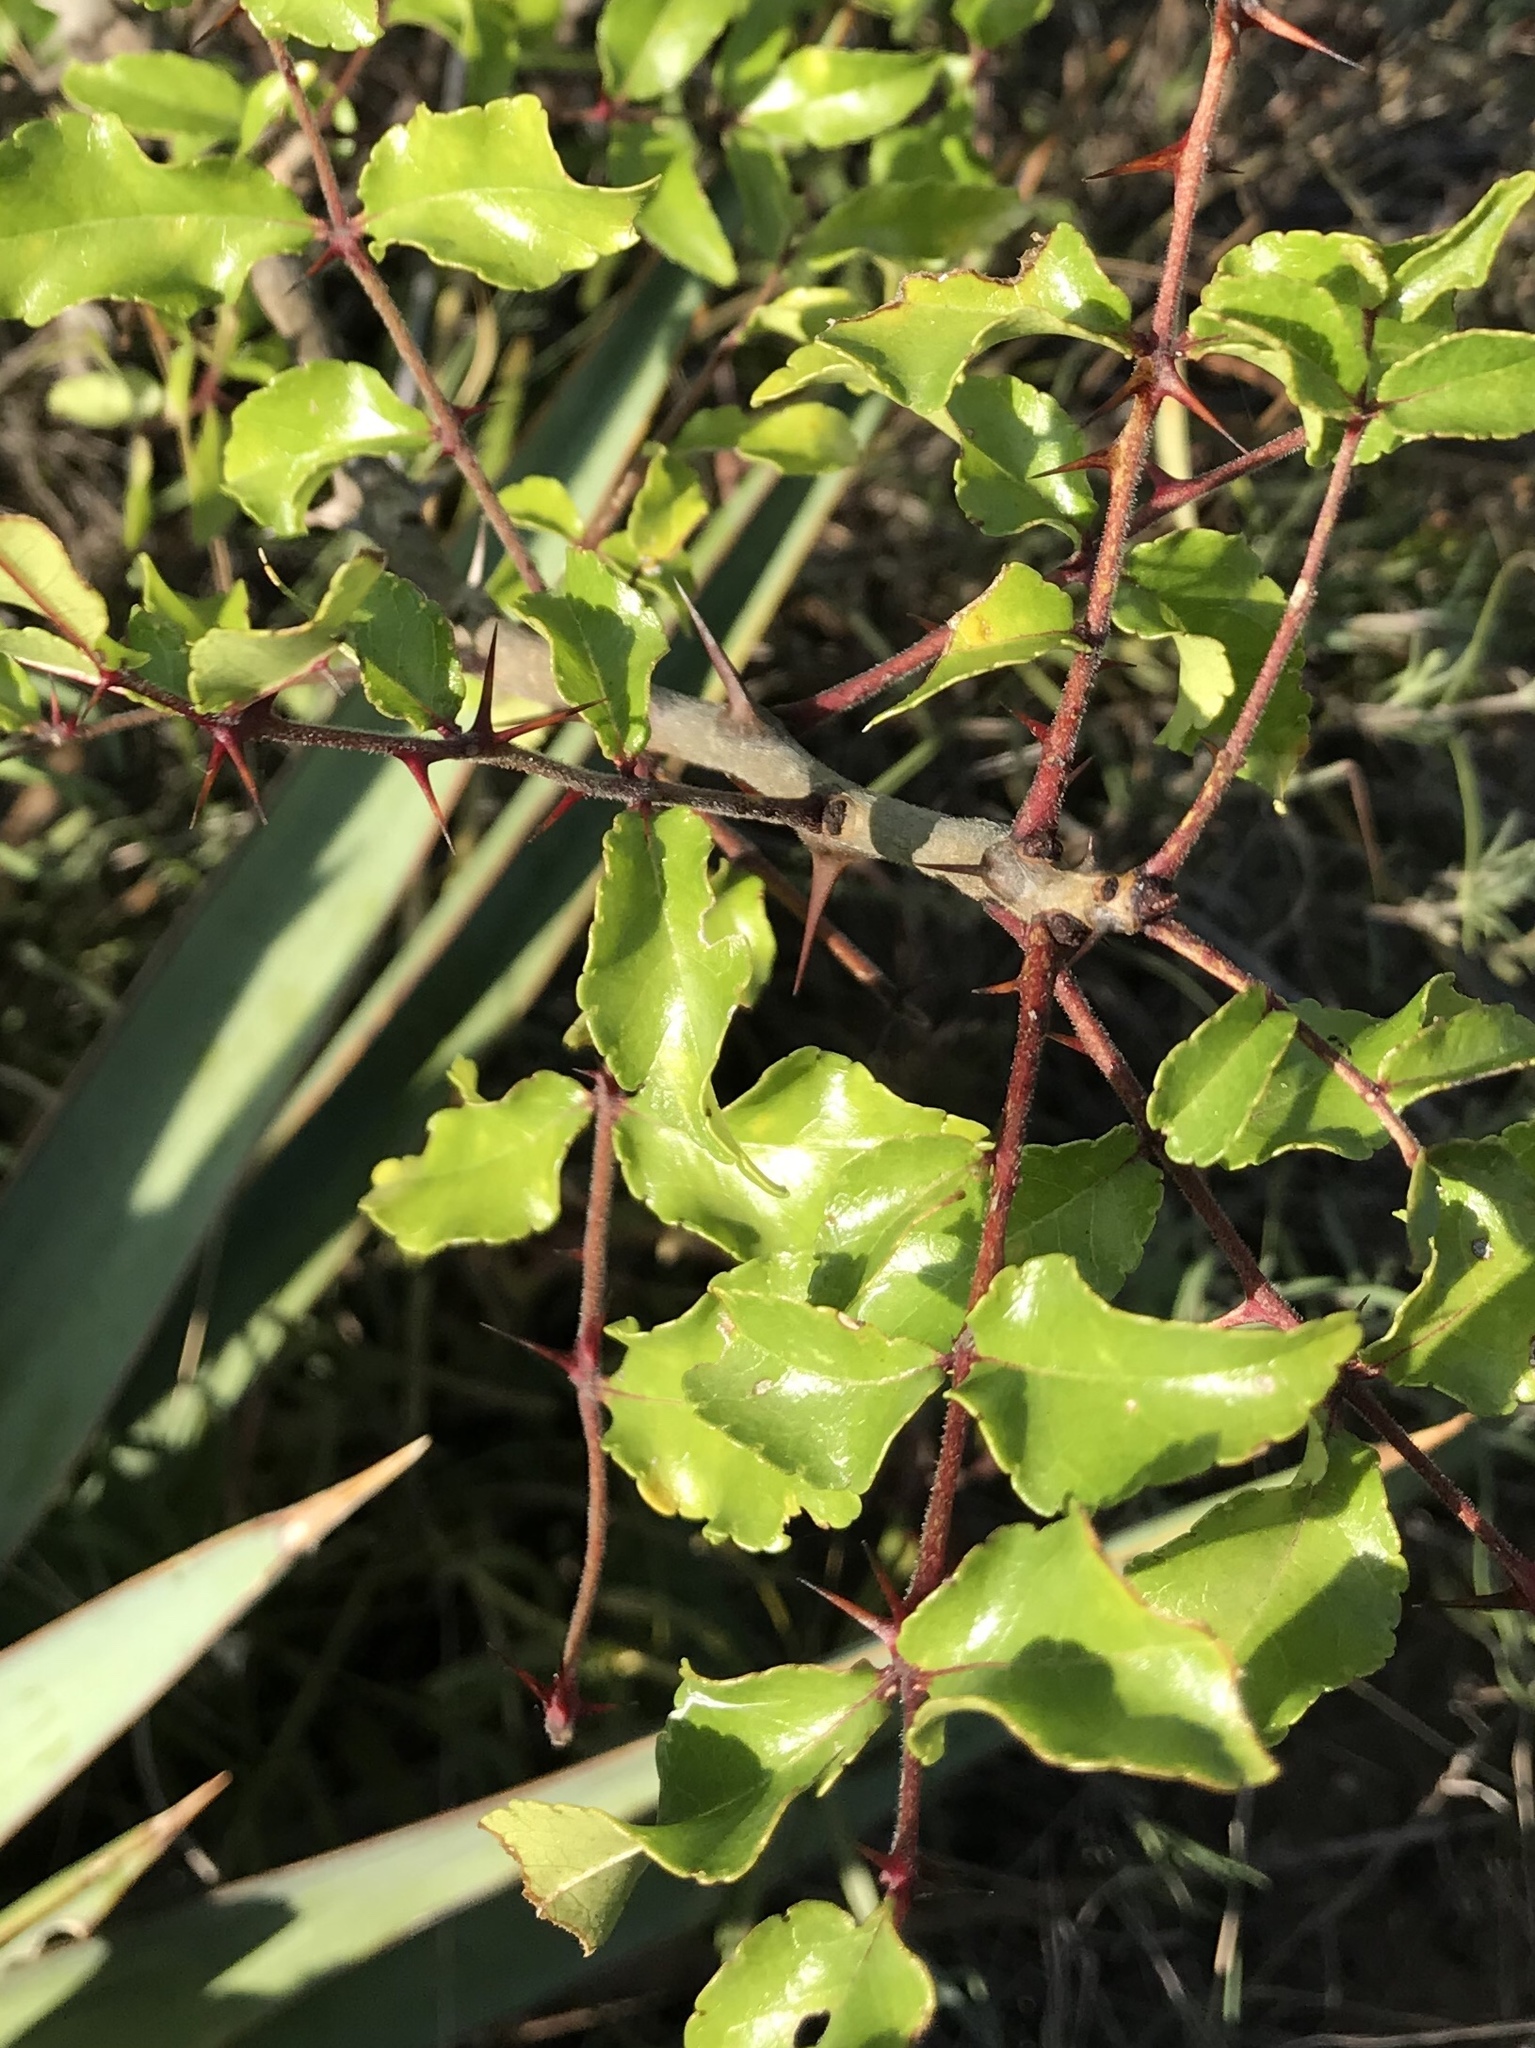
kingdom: Plantae
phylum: Tracheophyta
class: Magnoliopsida
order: Sapindales
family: Rutaceae
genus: Zanthoxylum
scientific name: Zanthoxylum clava-herculis
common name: Hercules'-club
